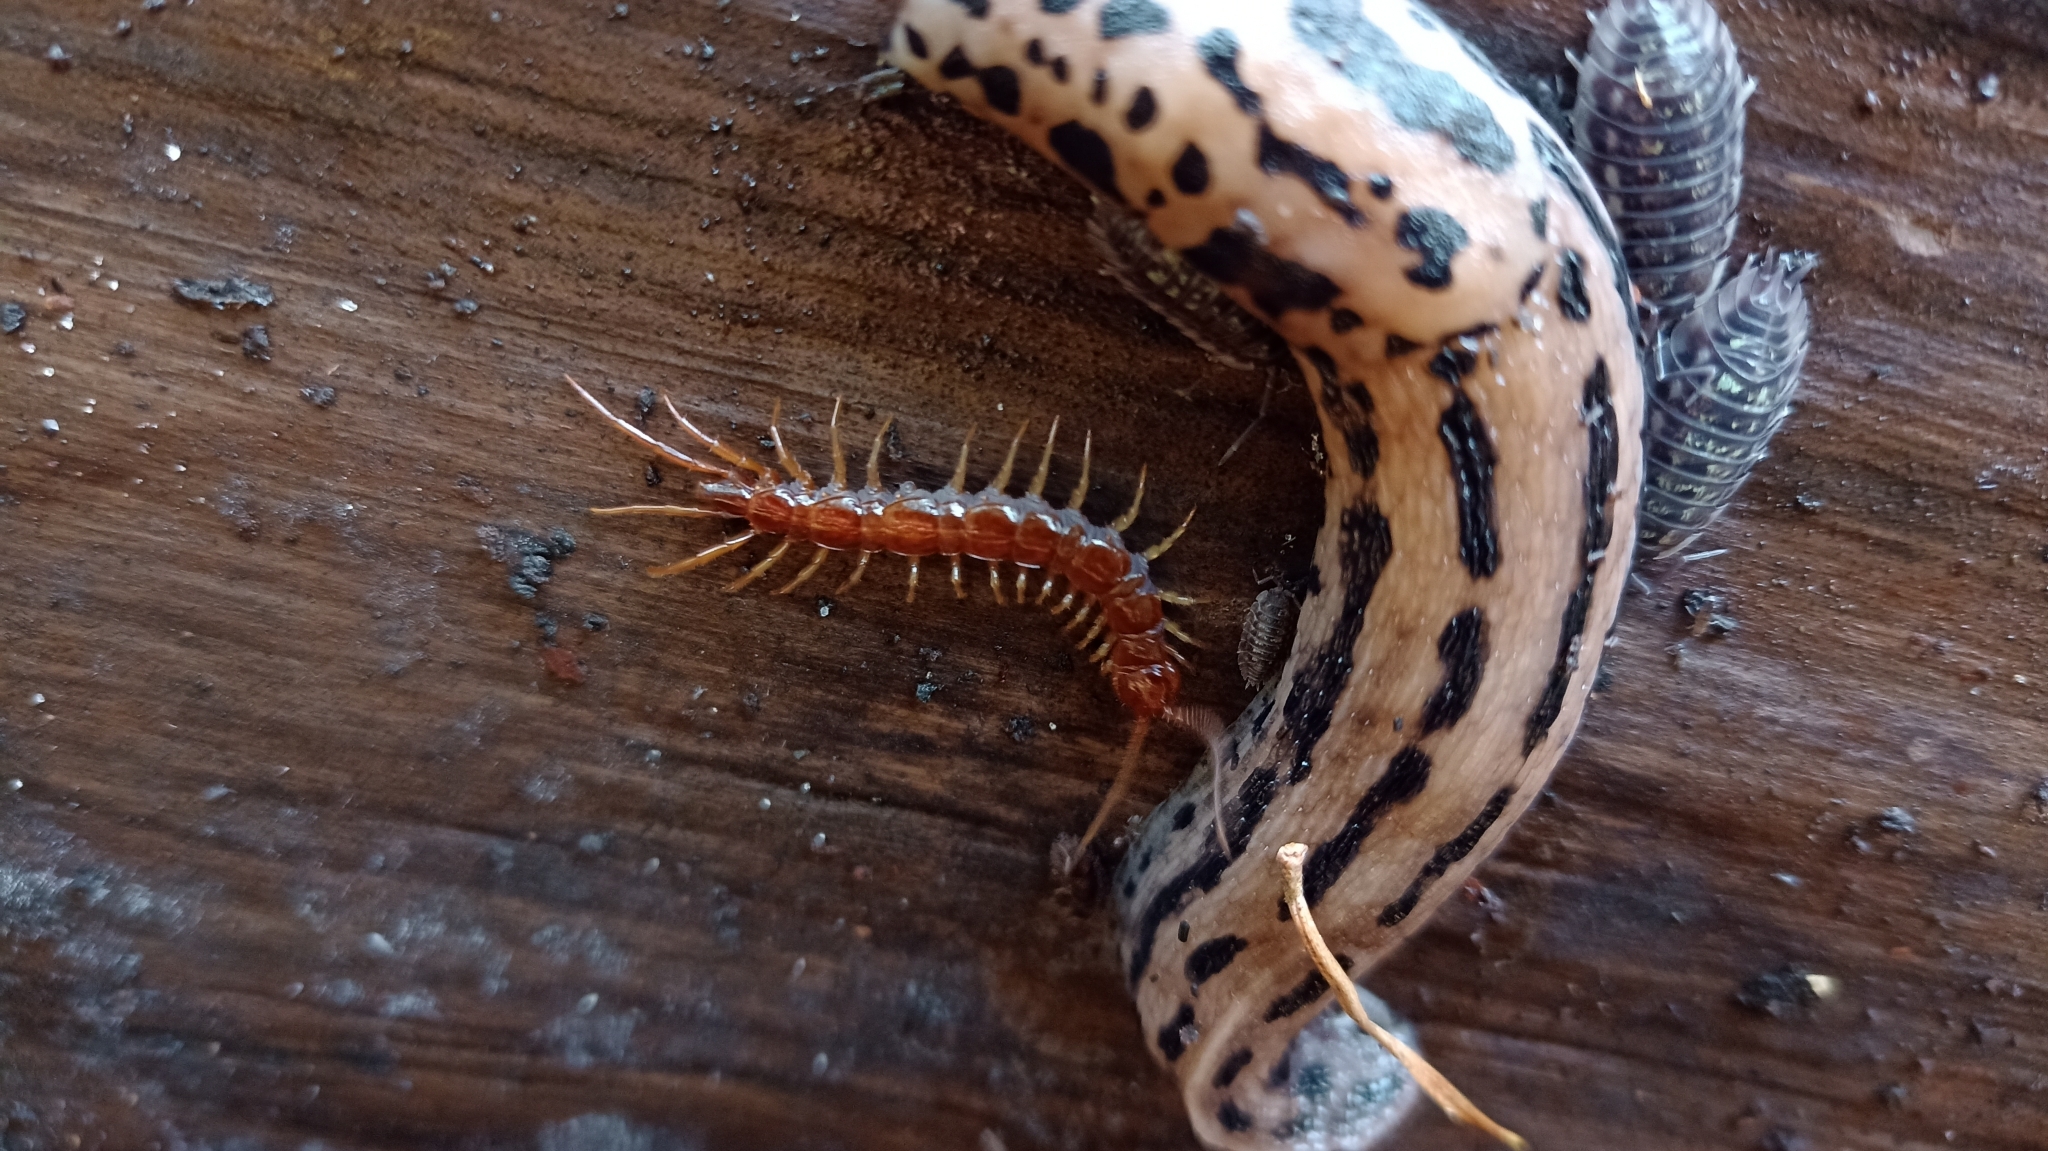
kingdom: Animalia
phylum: Arthropoda
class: Chilopoda
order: Lithobiomorpha
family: Lithobiidae
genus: Lithobius
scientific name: Lithobius forficatus
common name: Centipede
